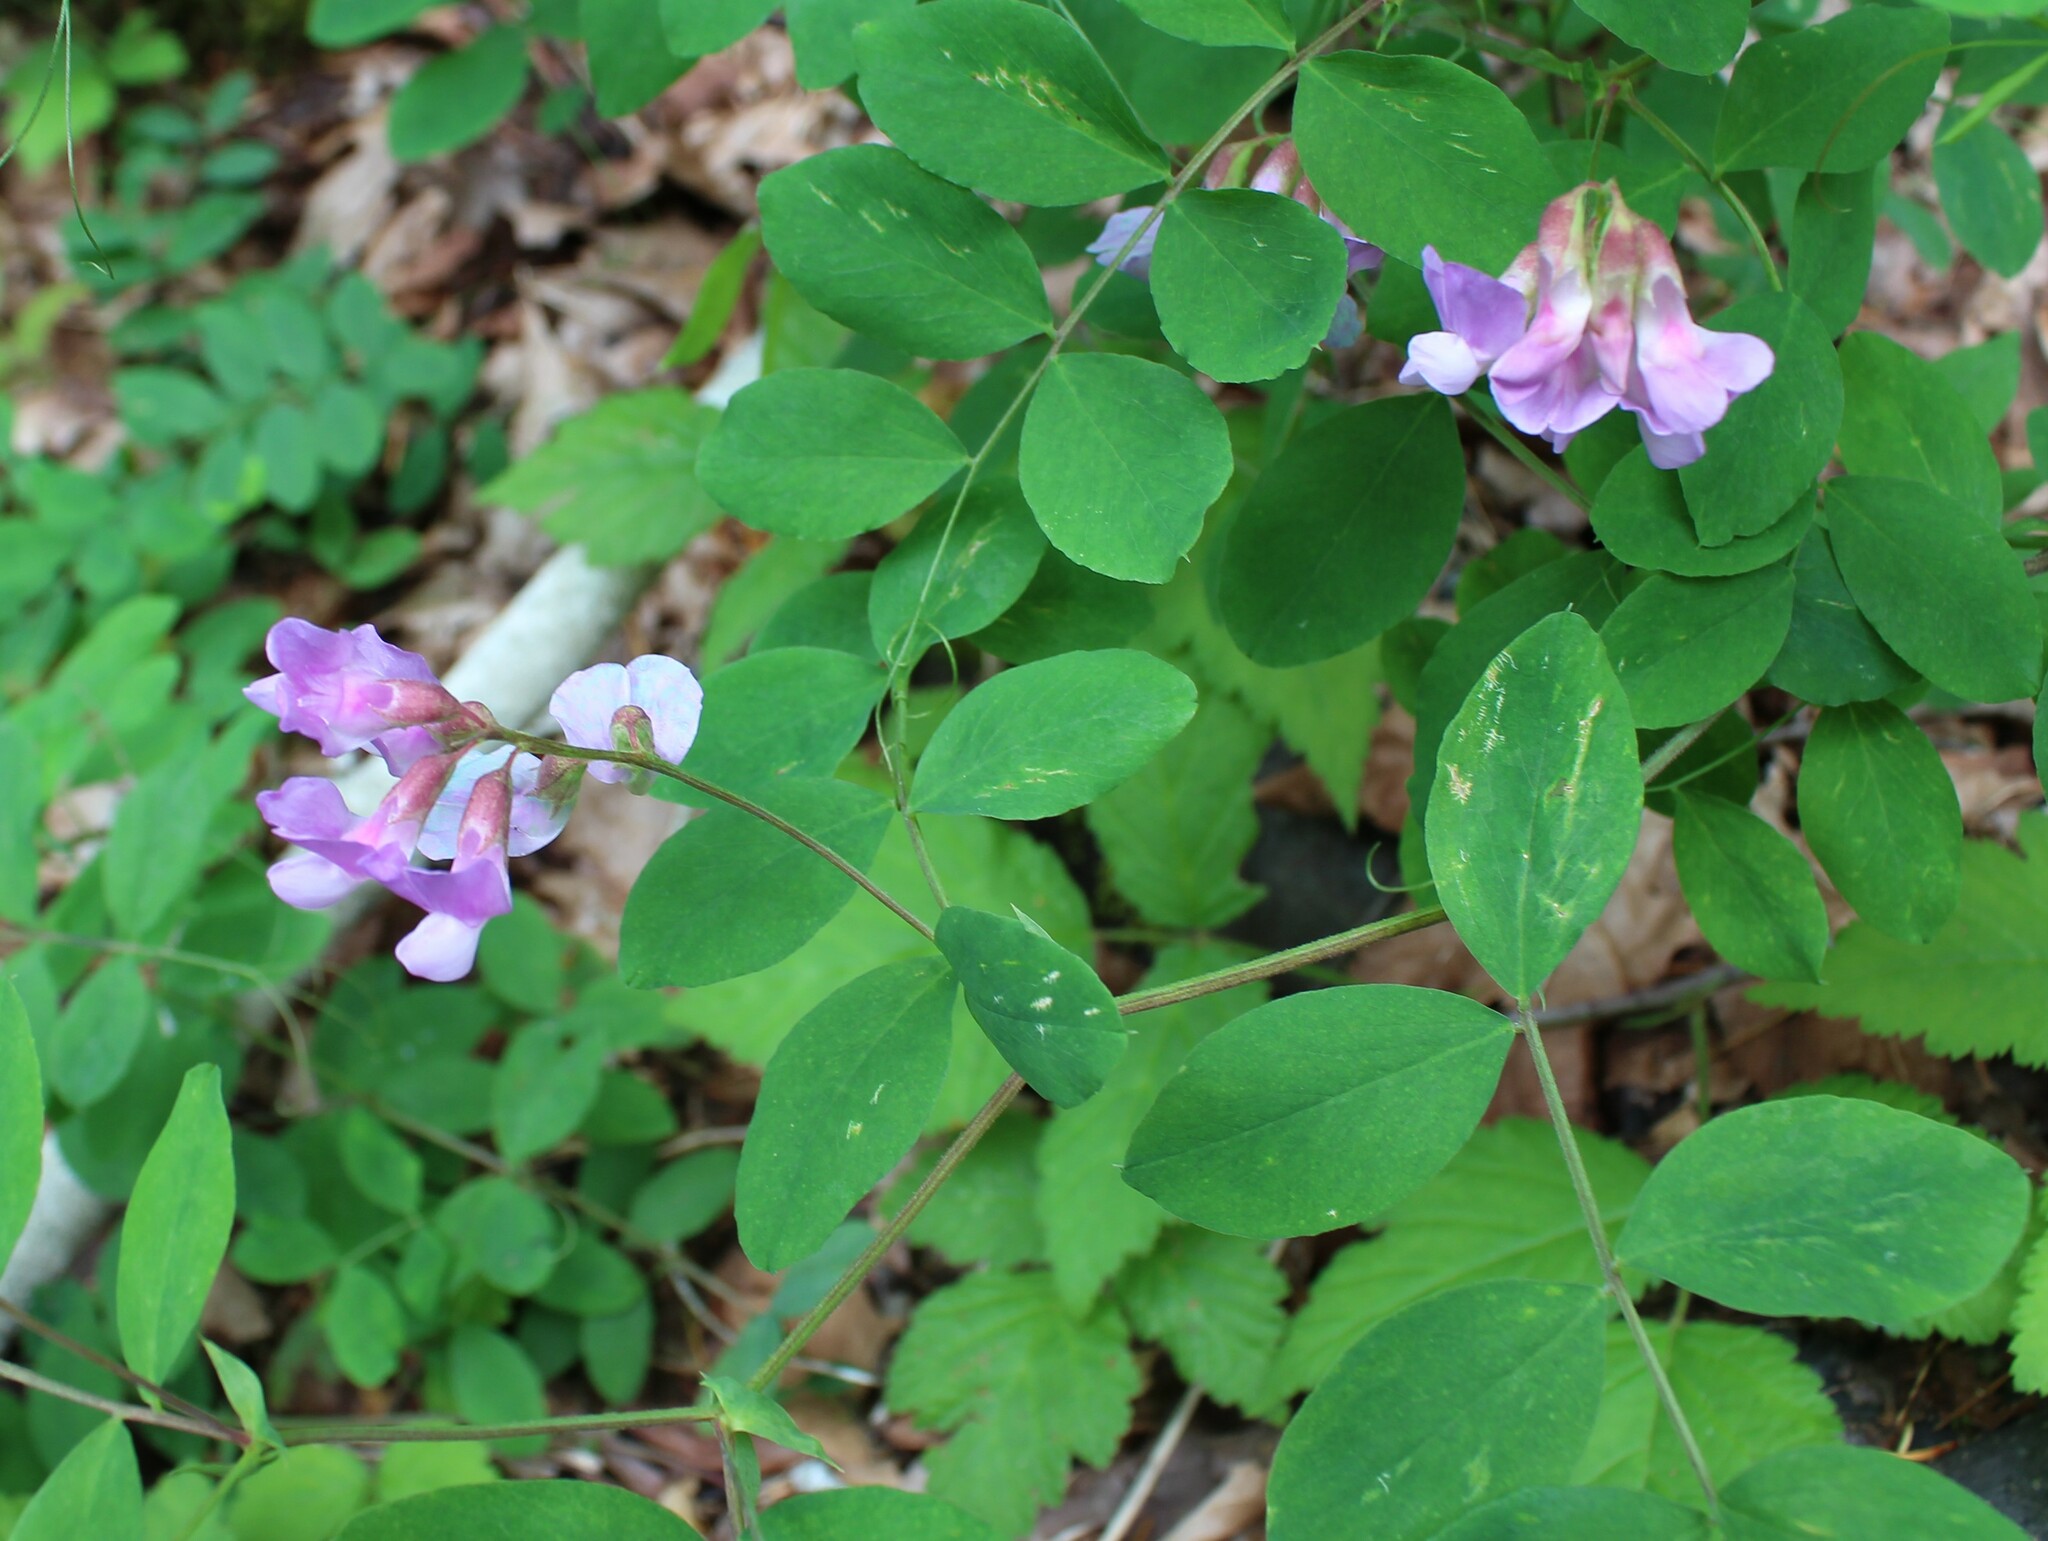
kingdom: Plantae
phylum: Tracheophyta
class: Magnoliopsida
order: Fabales
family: Fabaceae
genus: Lathyrus
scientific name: Lathyrus nevadensis
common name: Sierra nevada peavine
